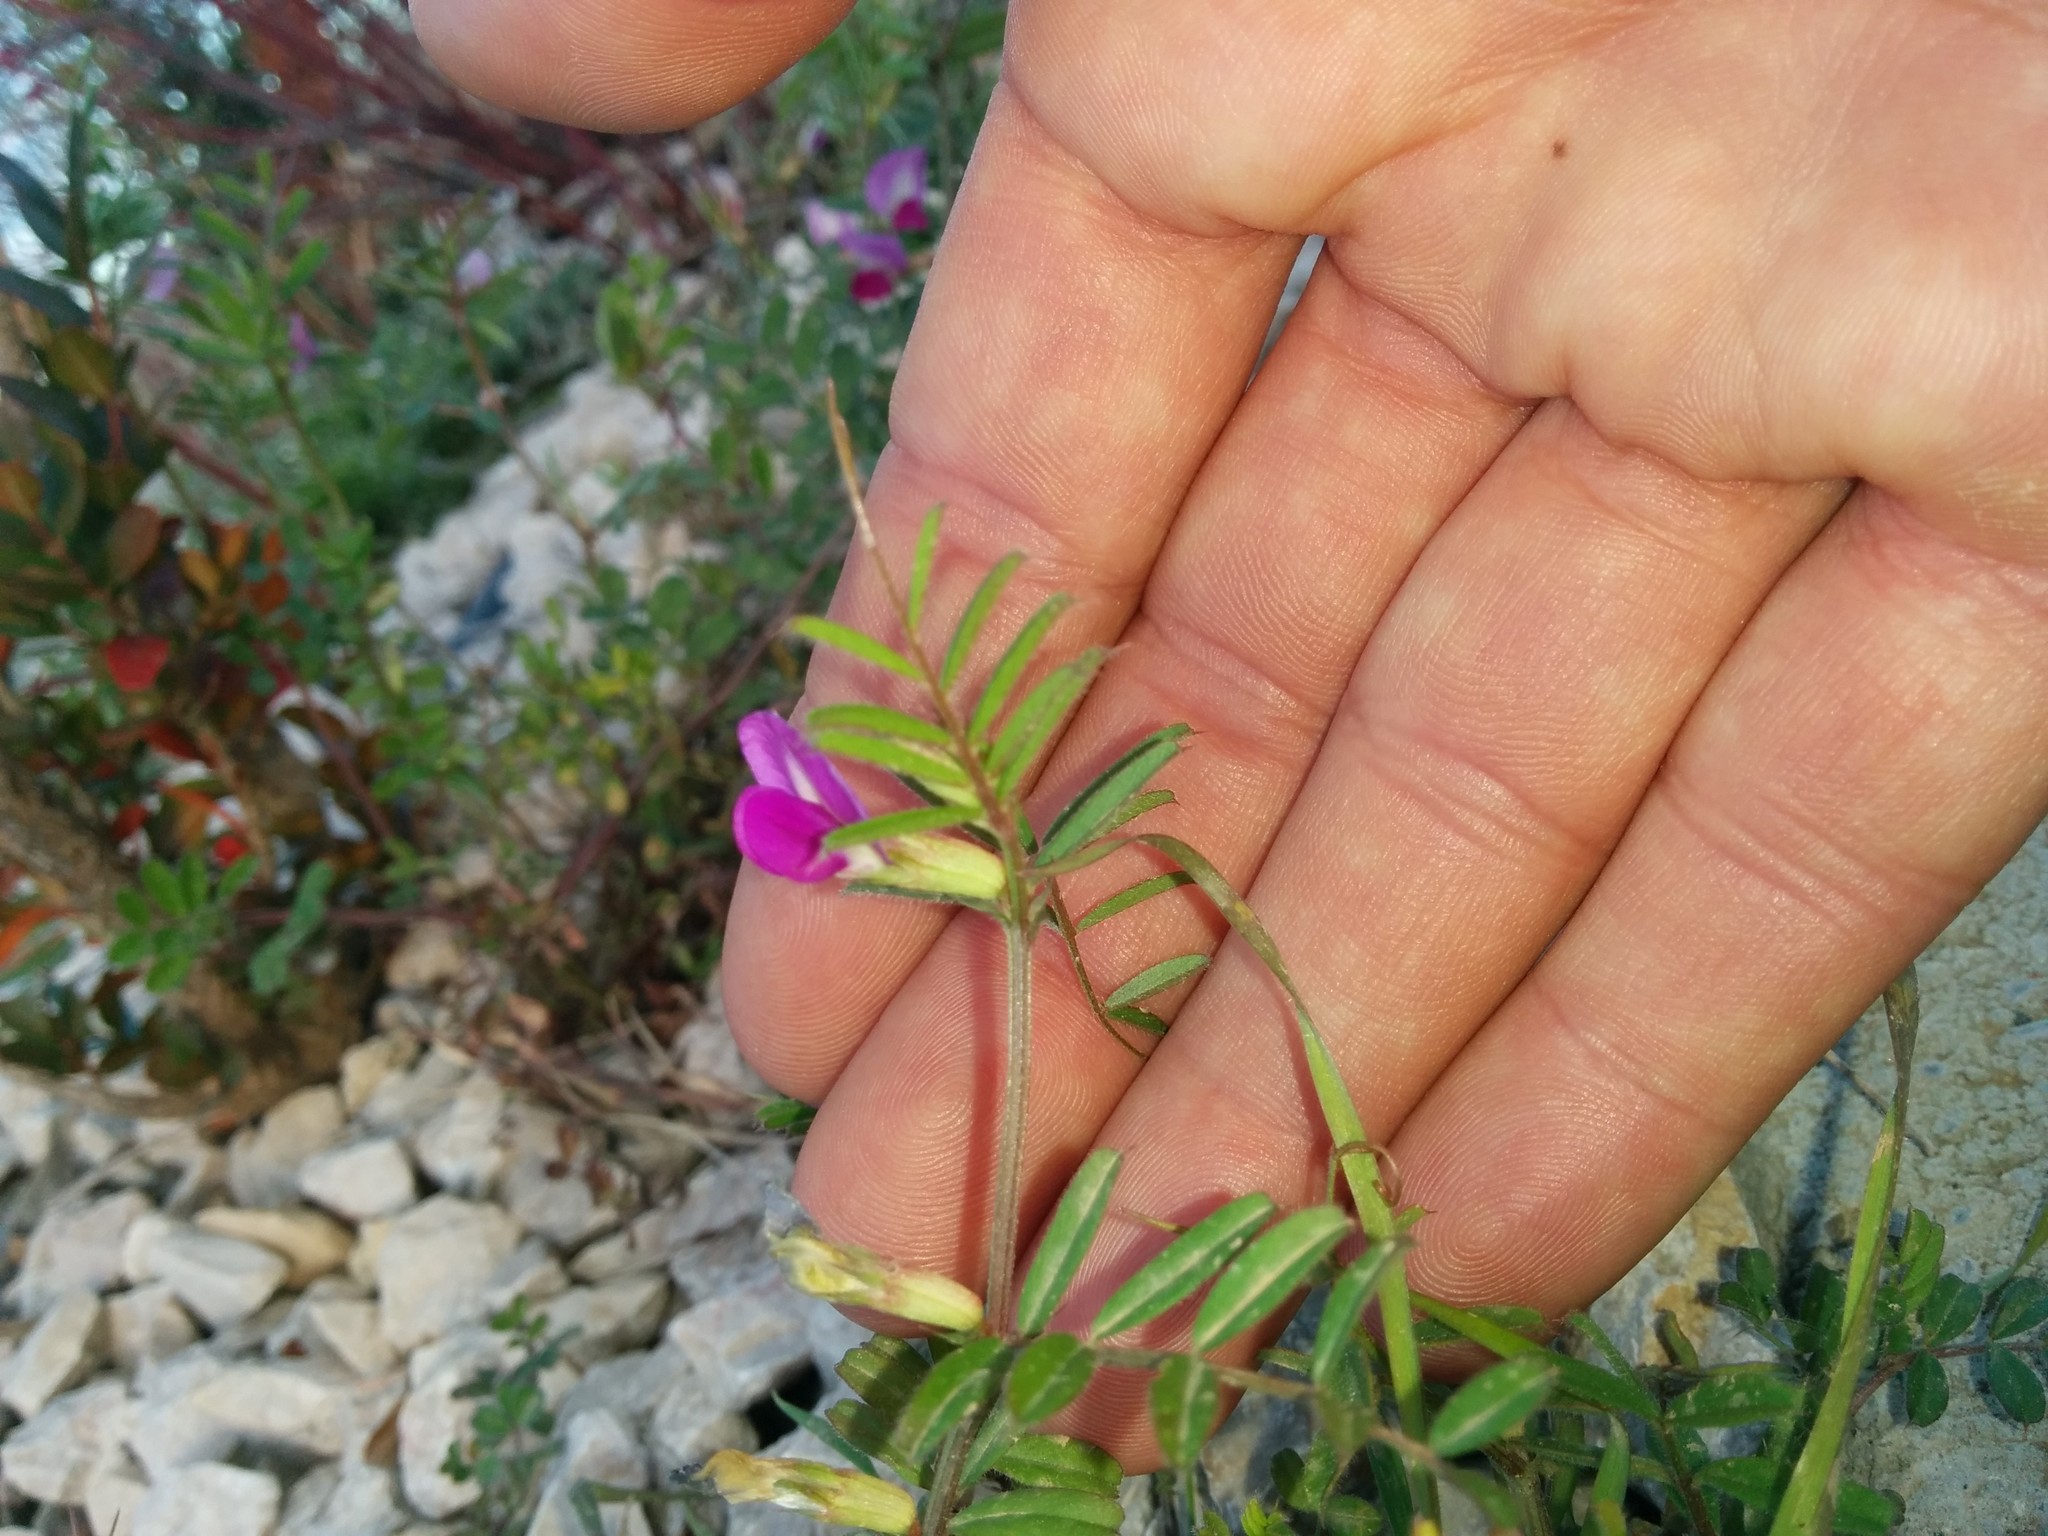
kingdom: Plantae
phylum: Tracheophyta
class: Magnoliopsida
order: Fabales
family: Fabaceae
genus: Vicia
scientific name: Vicia sativa
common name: Garden vetch
